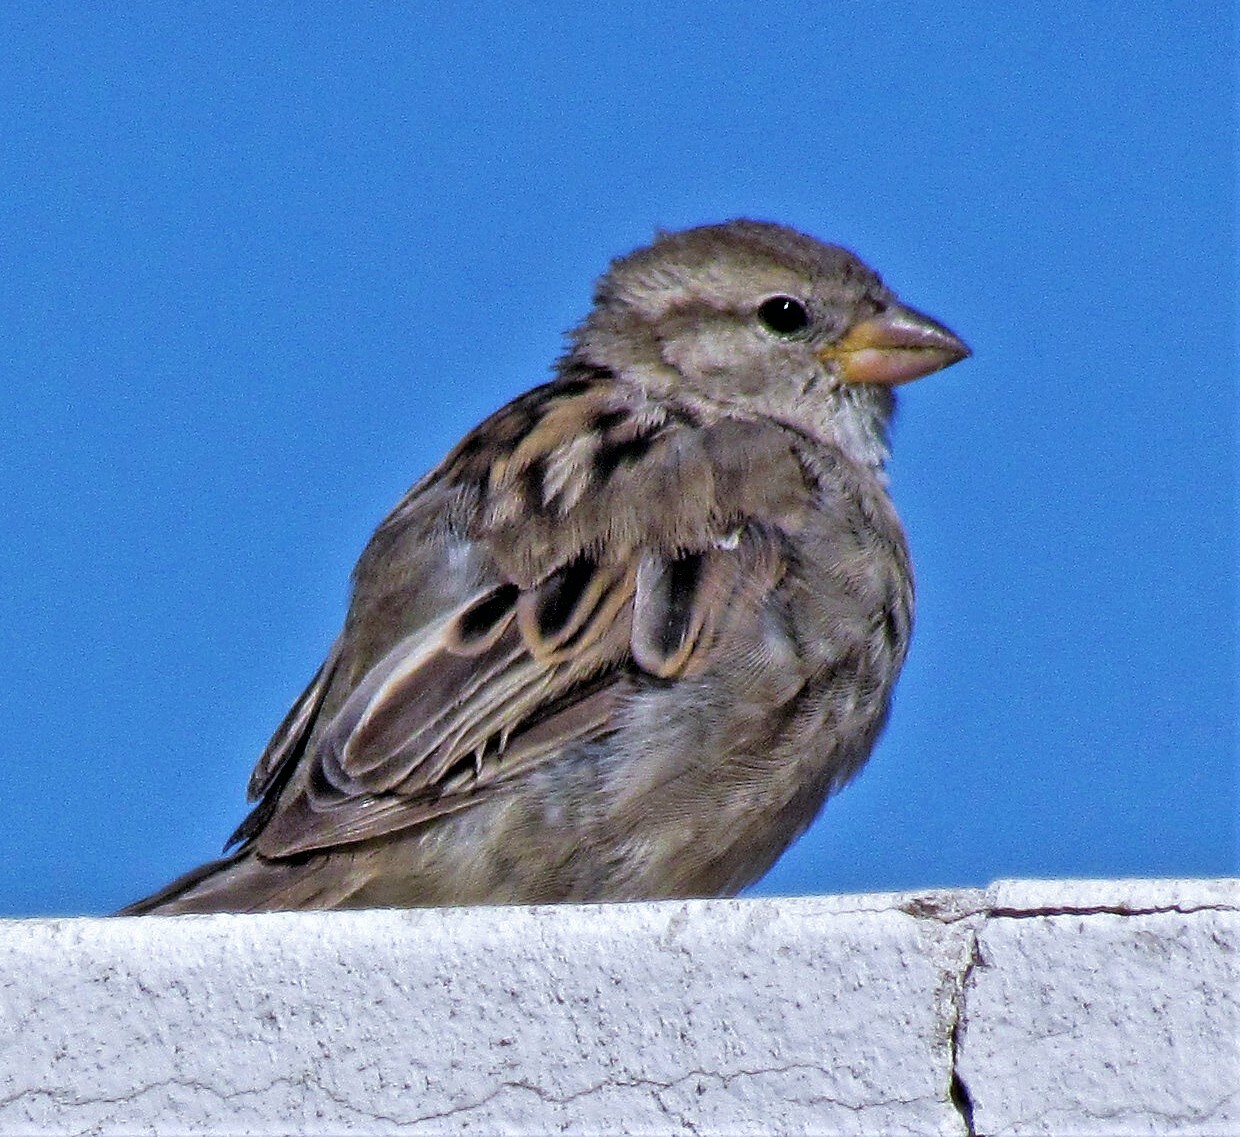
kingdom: Animalia
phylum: Chordata
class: Aves
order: Passeriformes
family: Passeridae
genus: Passer
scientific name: Passer domesticus
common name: House sparrow
